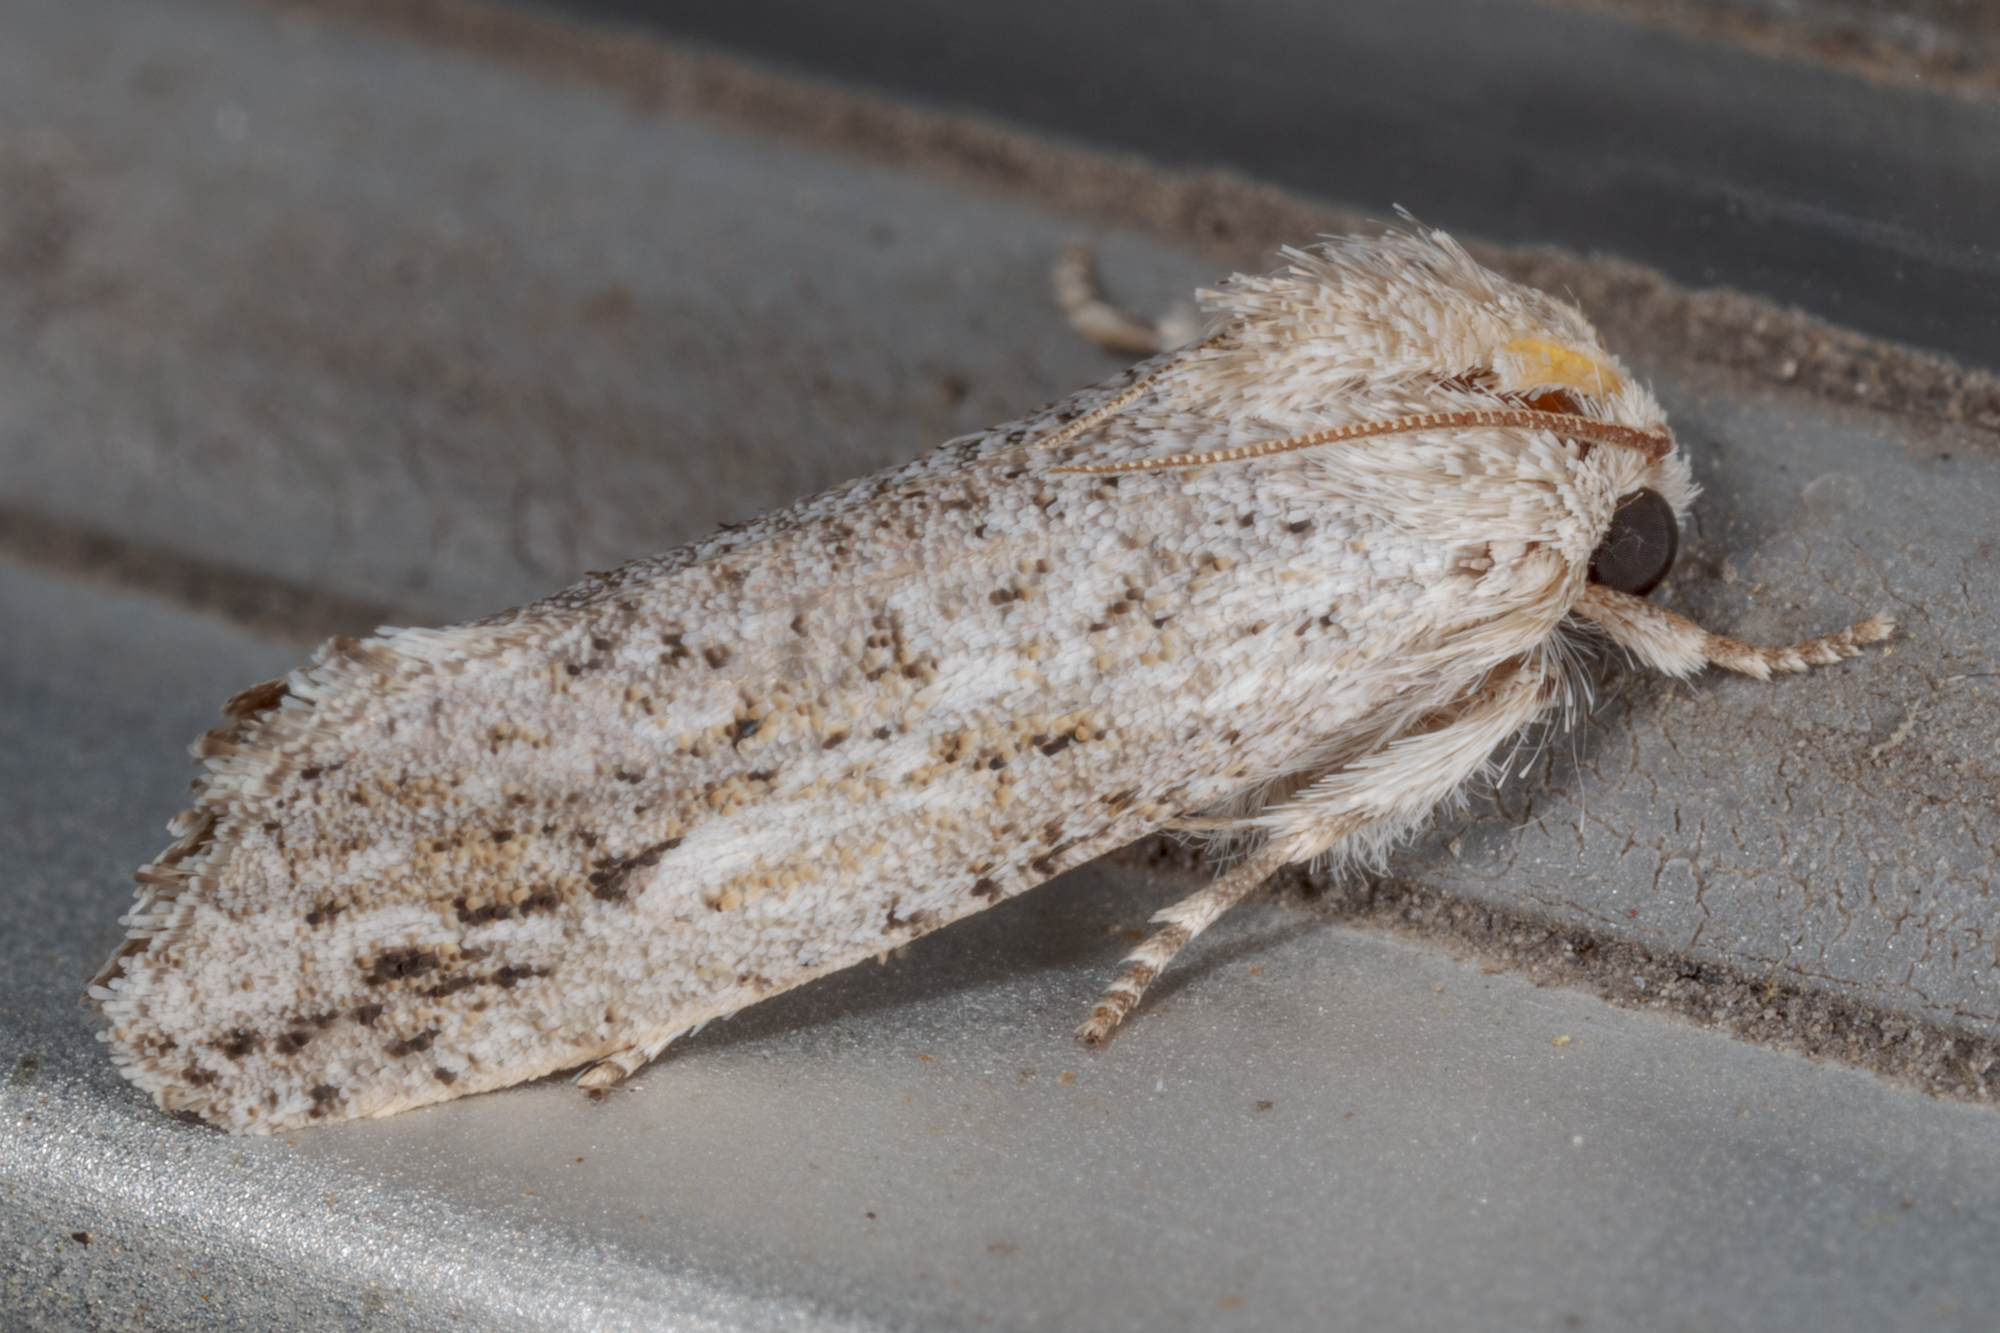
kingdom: Animalia
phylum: Arthropoda
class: Insecta
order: Lepidoptera
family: Tineidae
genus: Acrolophus
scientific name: Acrolophus griseus
